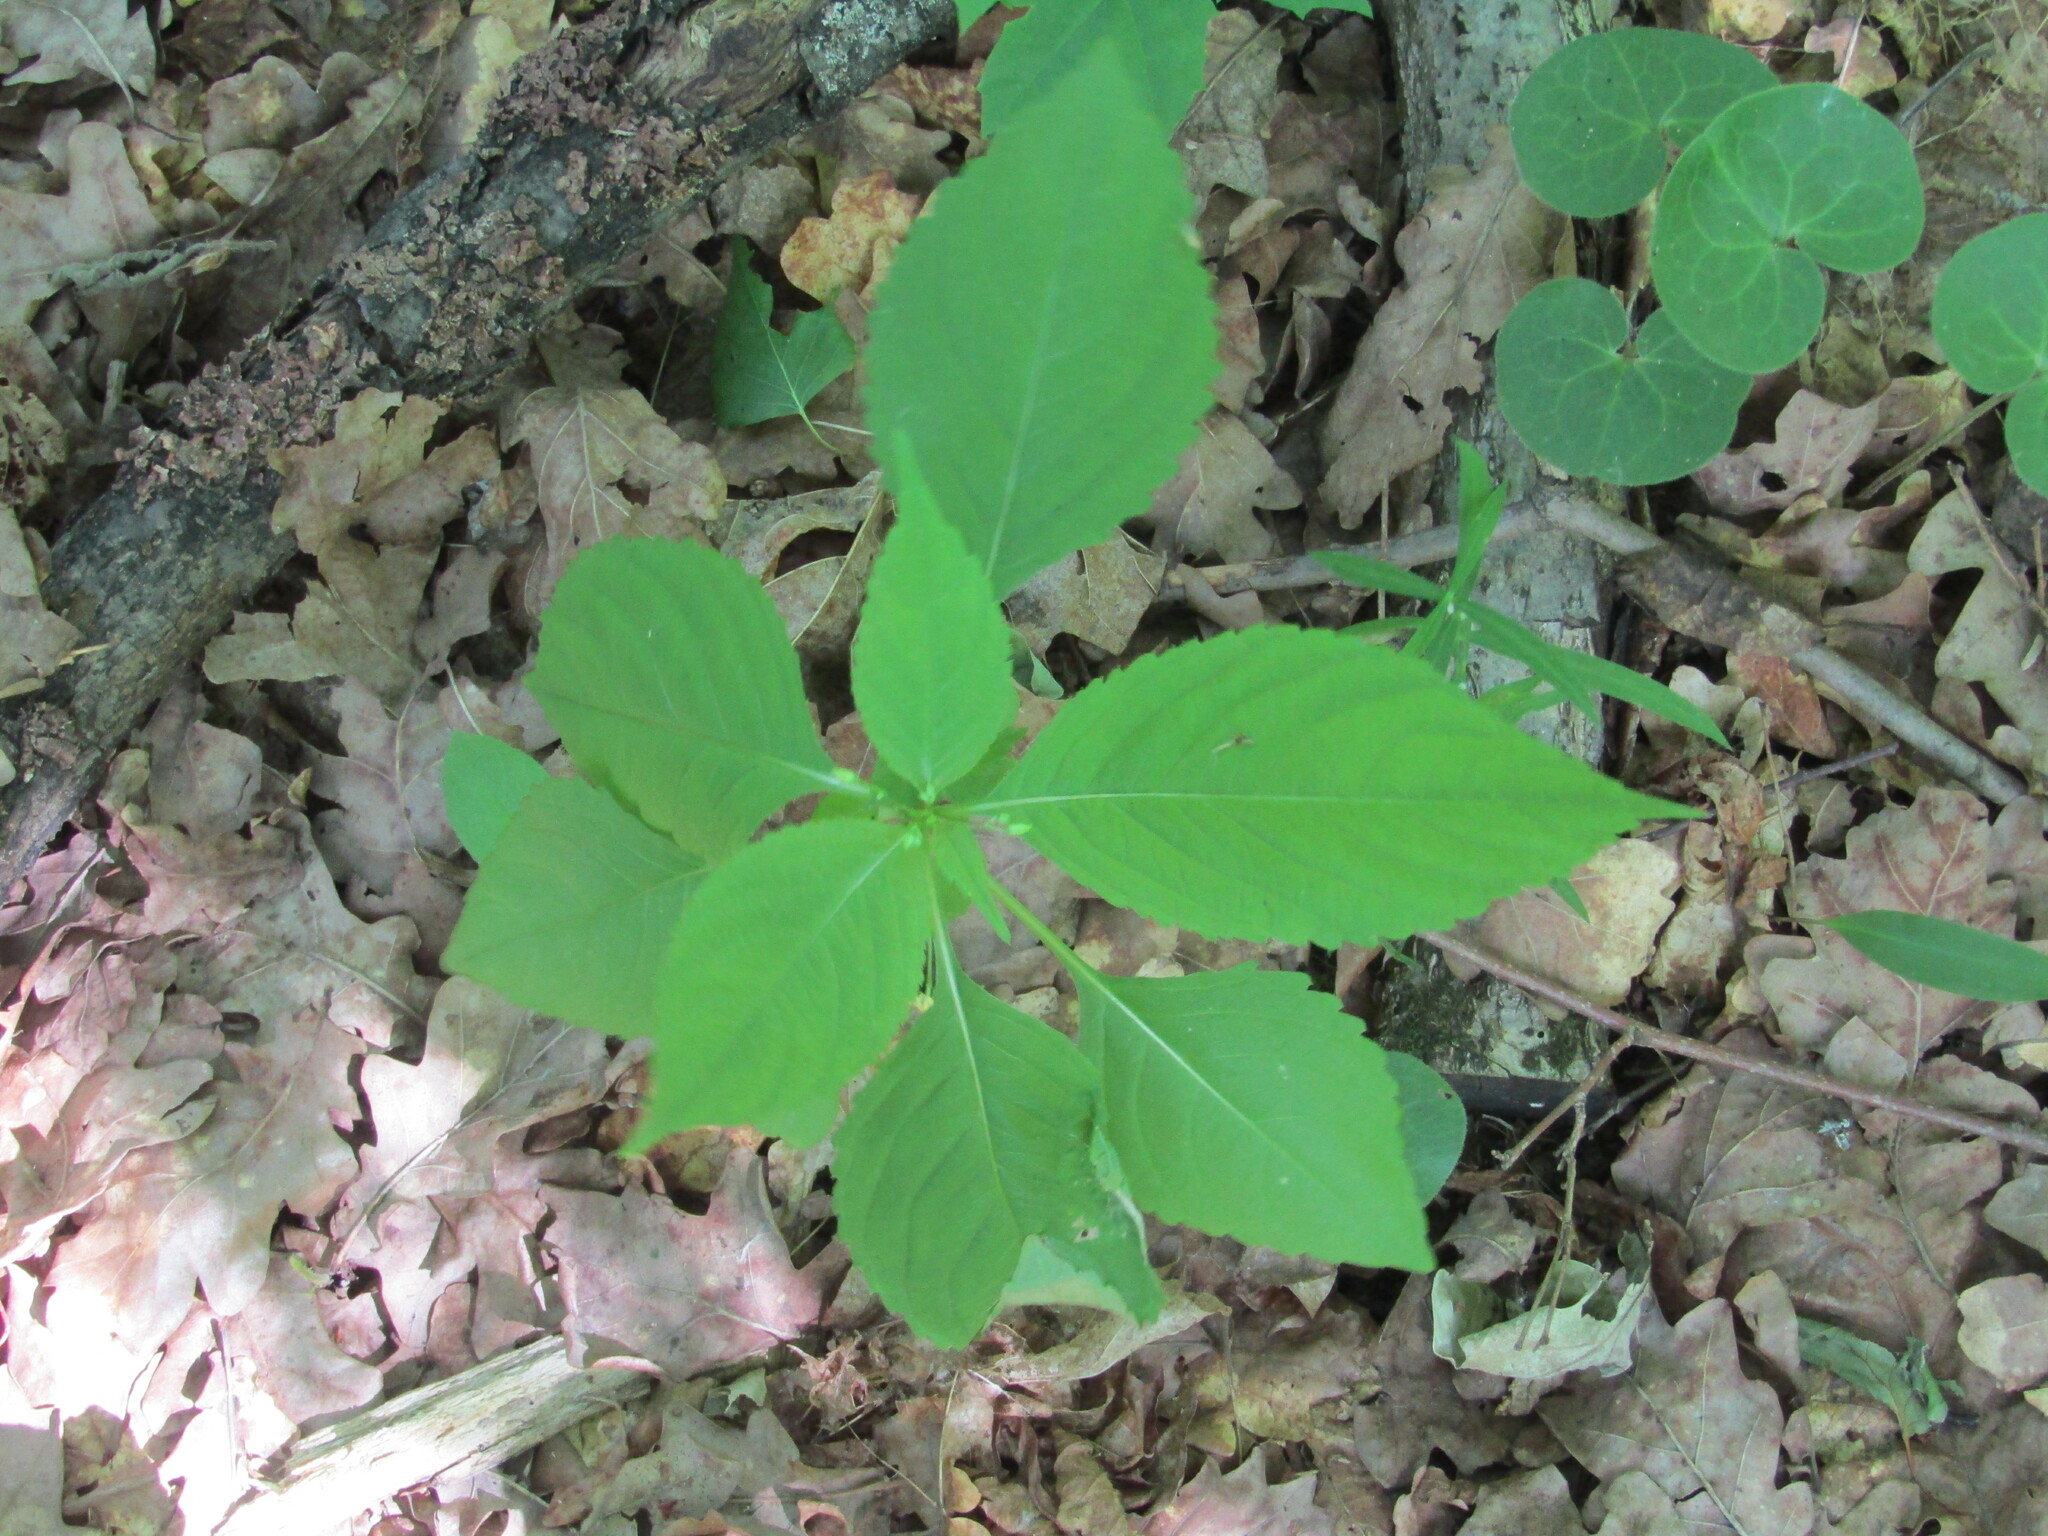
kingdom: Plantae
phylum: Tracheophyta
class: Magnoliopsida
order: Ericales
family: Balsaminaceae
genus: Impatiens
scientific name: Impatiens parviflora
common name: Small balsam
